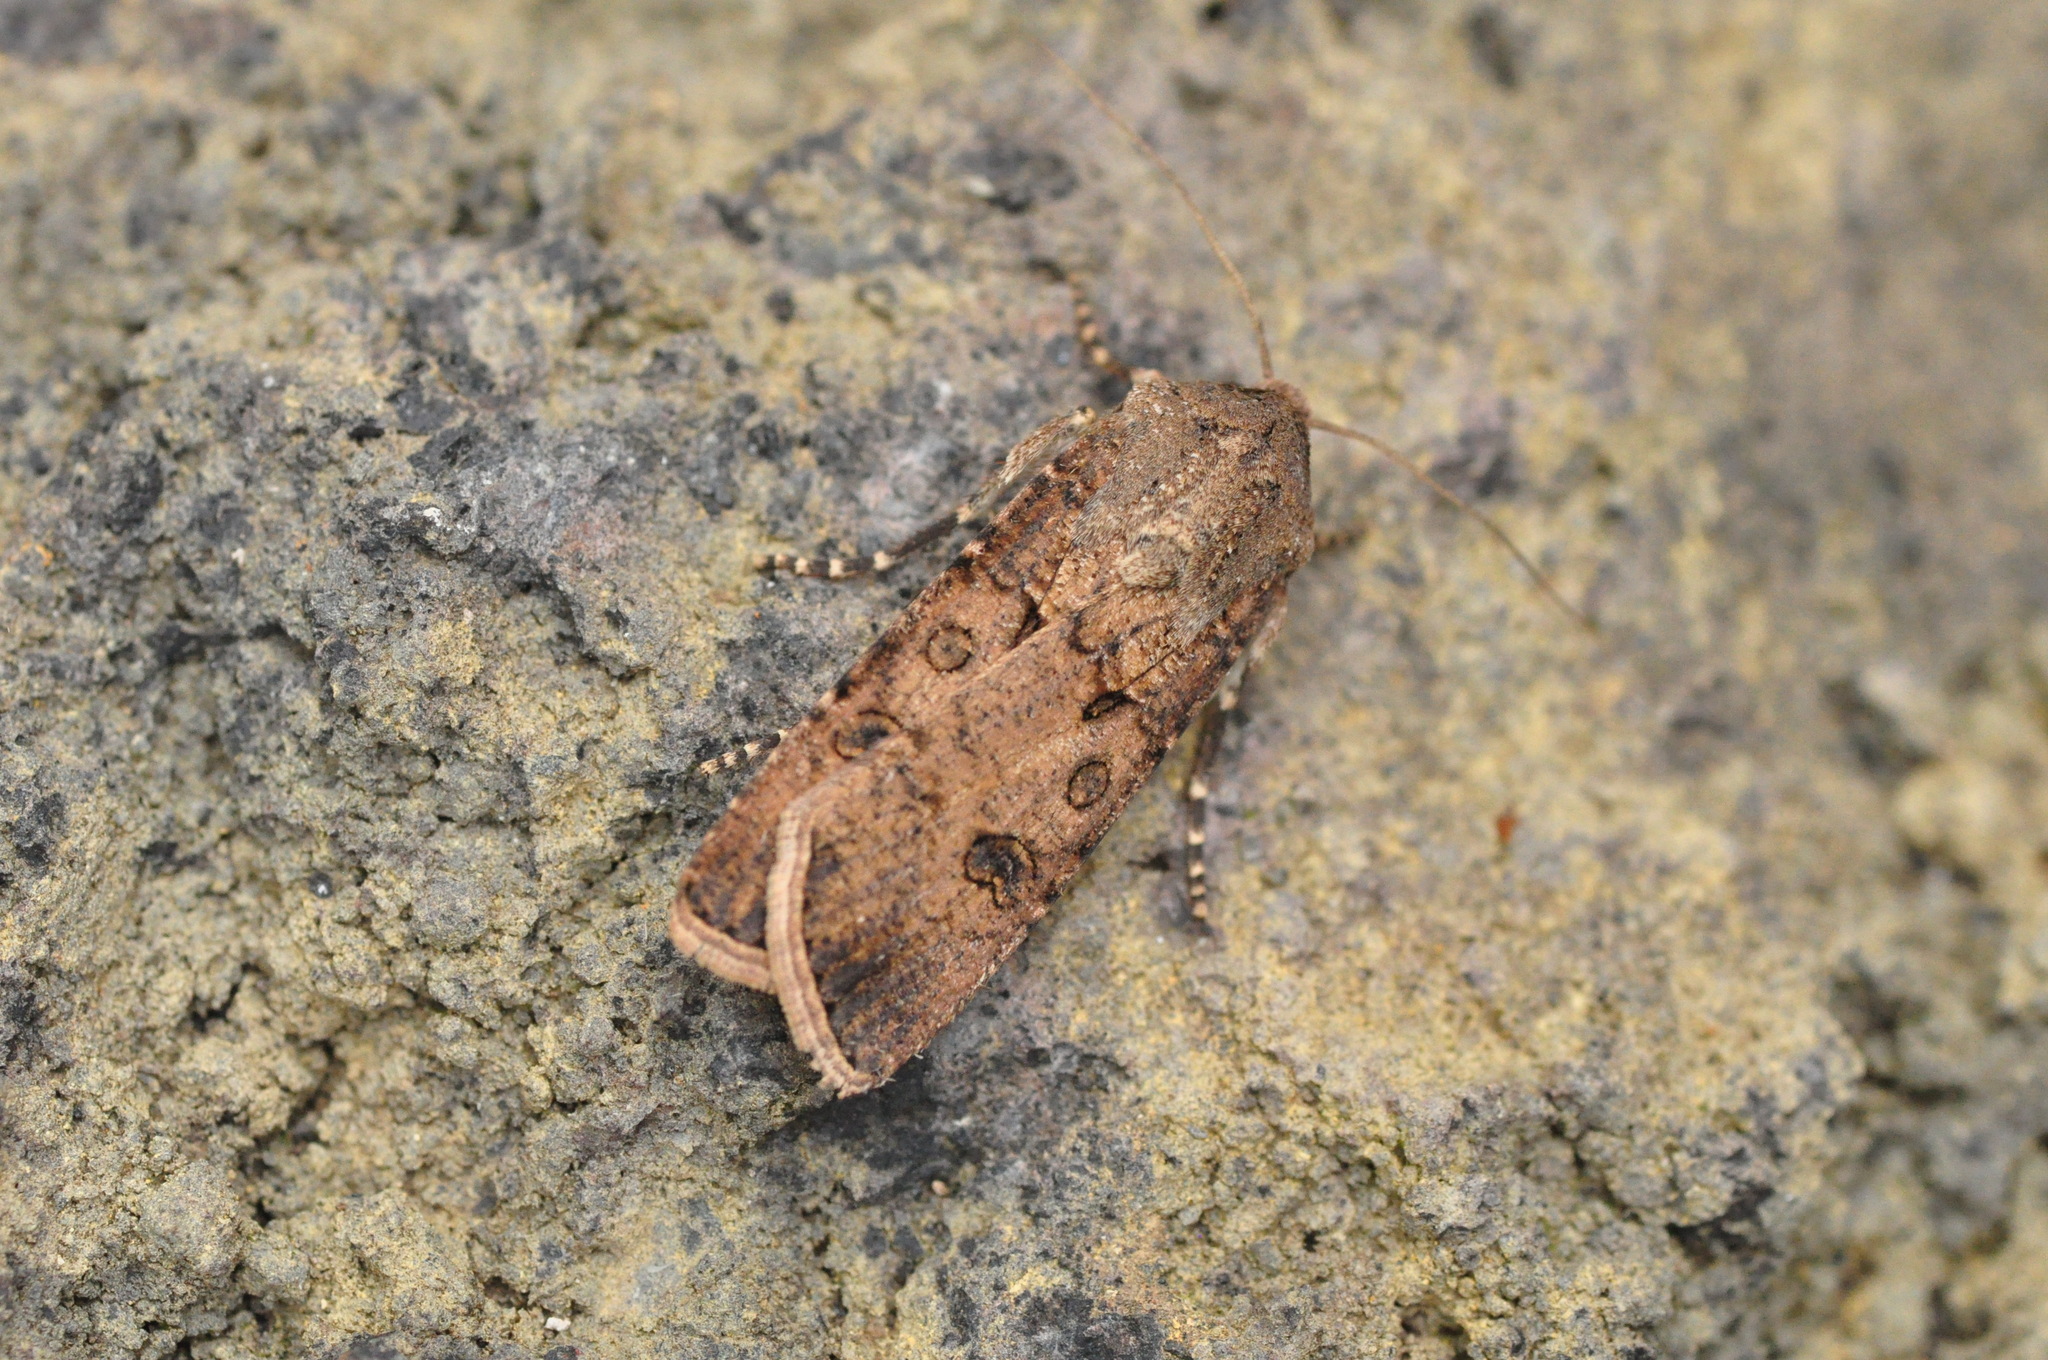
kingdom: Animalia
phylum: Arthropoda
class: Insecta
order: Lepidoptera
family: Noctuidae
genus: Agrotis
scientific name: Agrotis segetum
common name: Turnip moth
